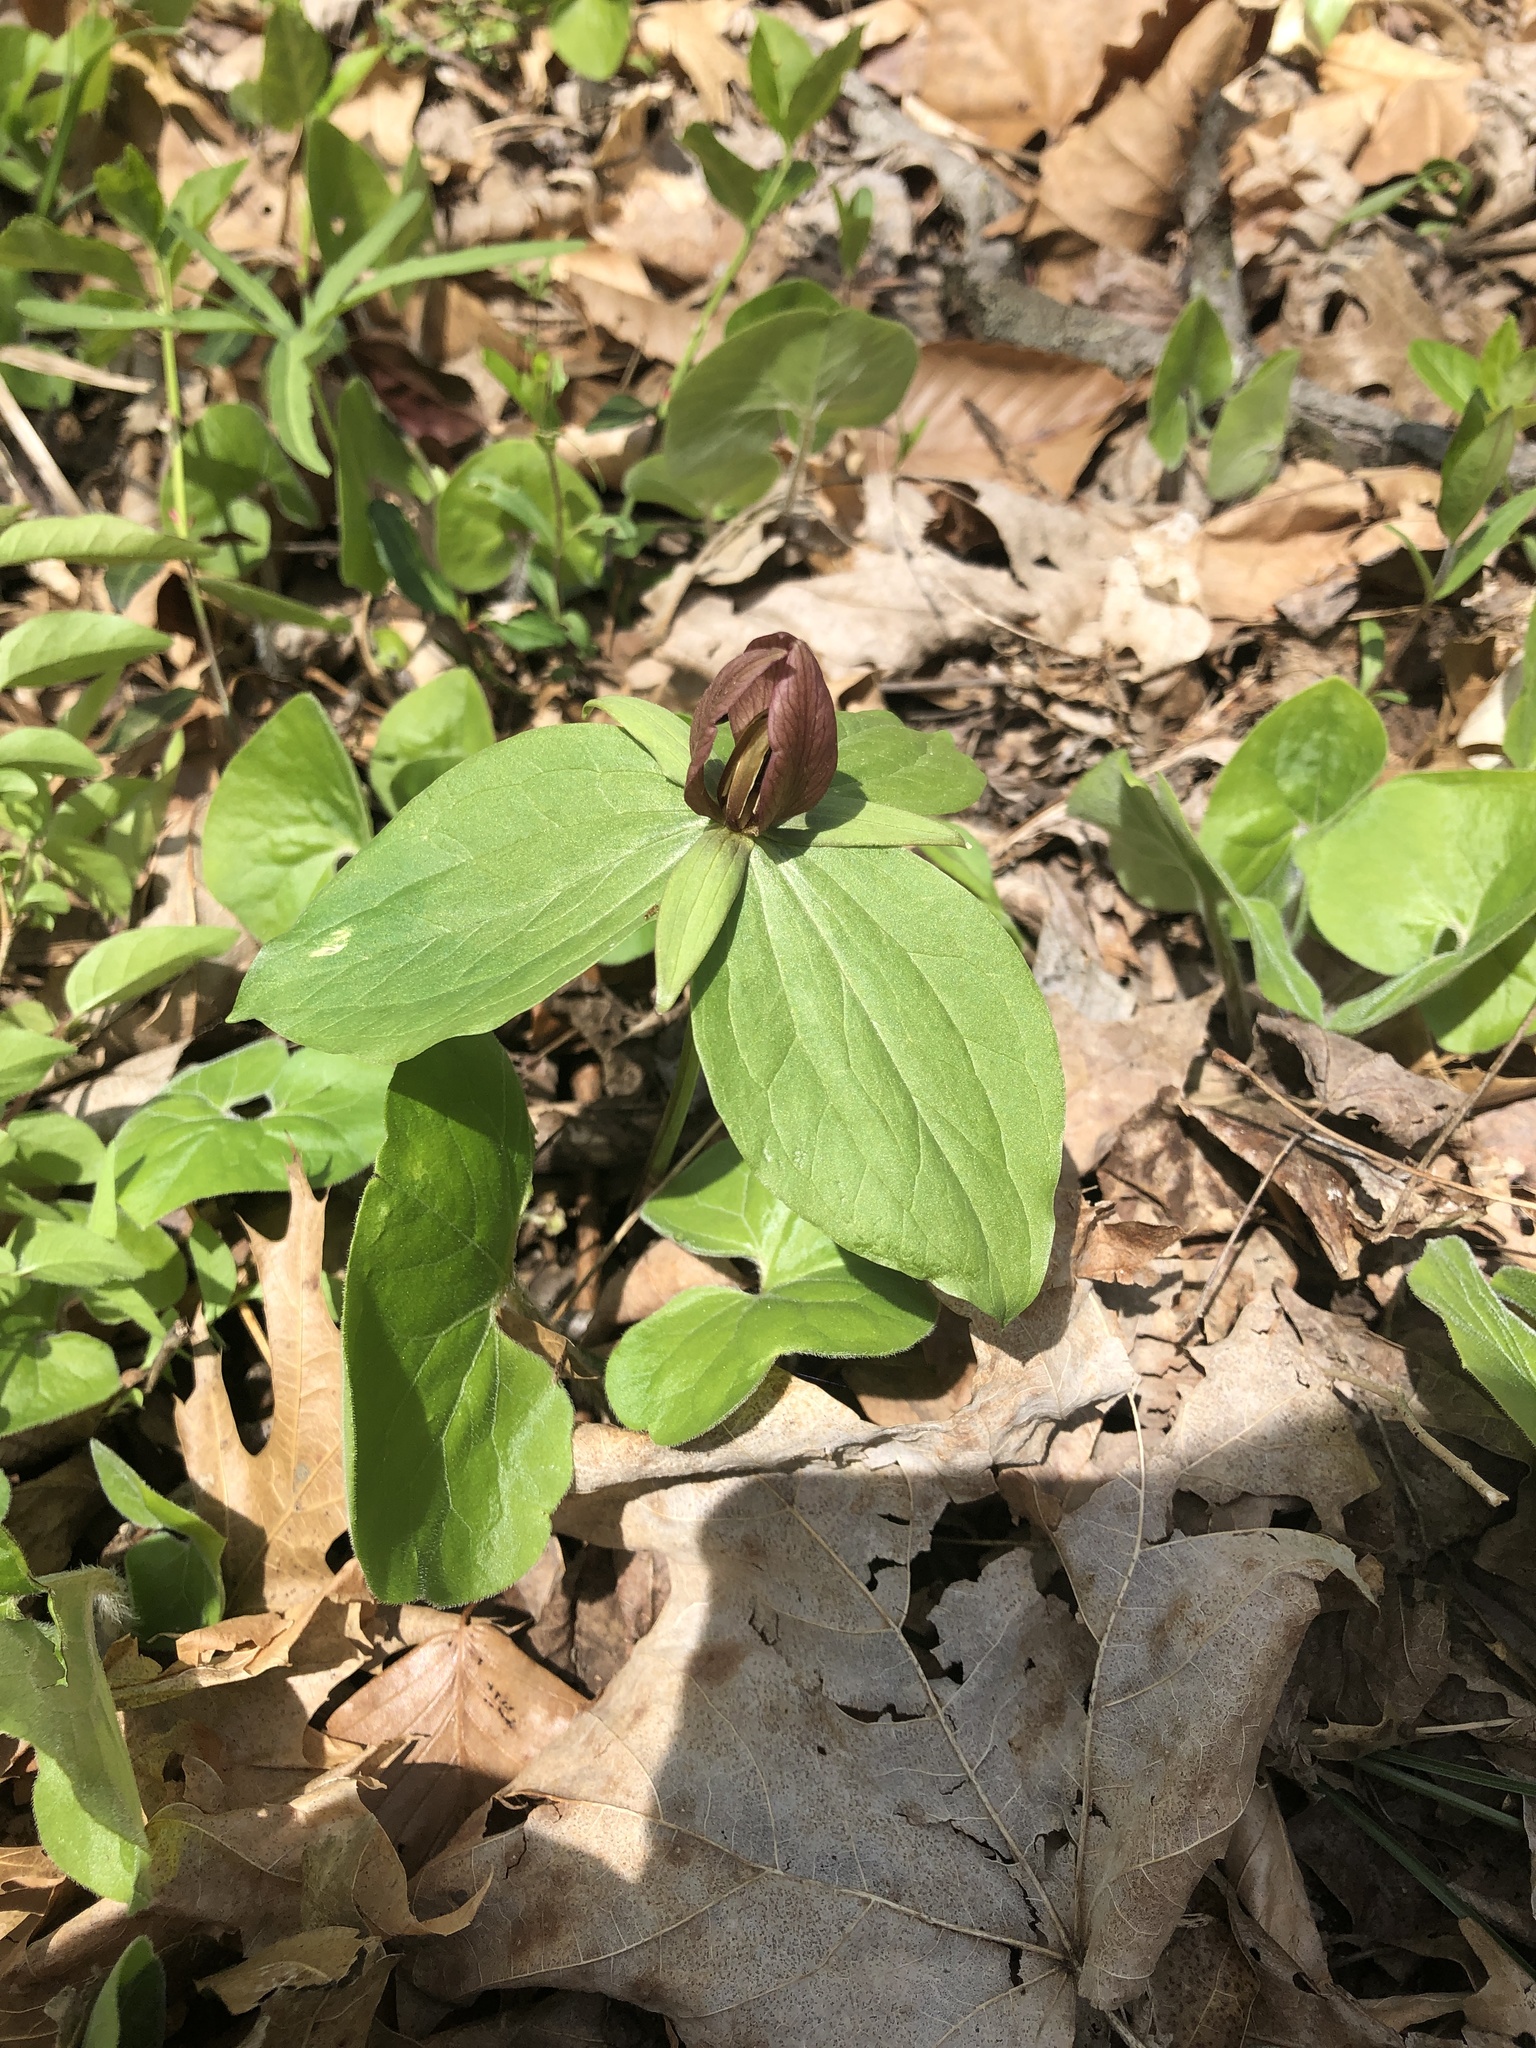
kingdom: Plantae
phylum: Tracheophyta
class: Liliopsida
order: Liliales
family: Melanthiaceae
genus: Trillium
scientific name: Trillium sessile
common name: Sessile trillium
